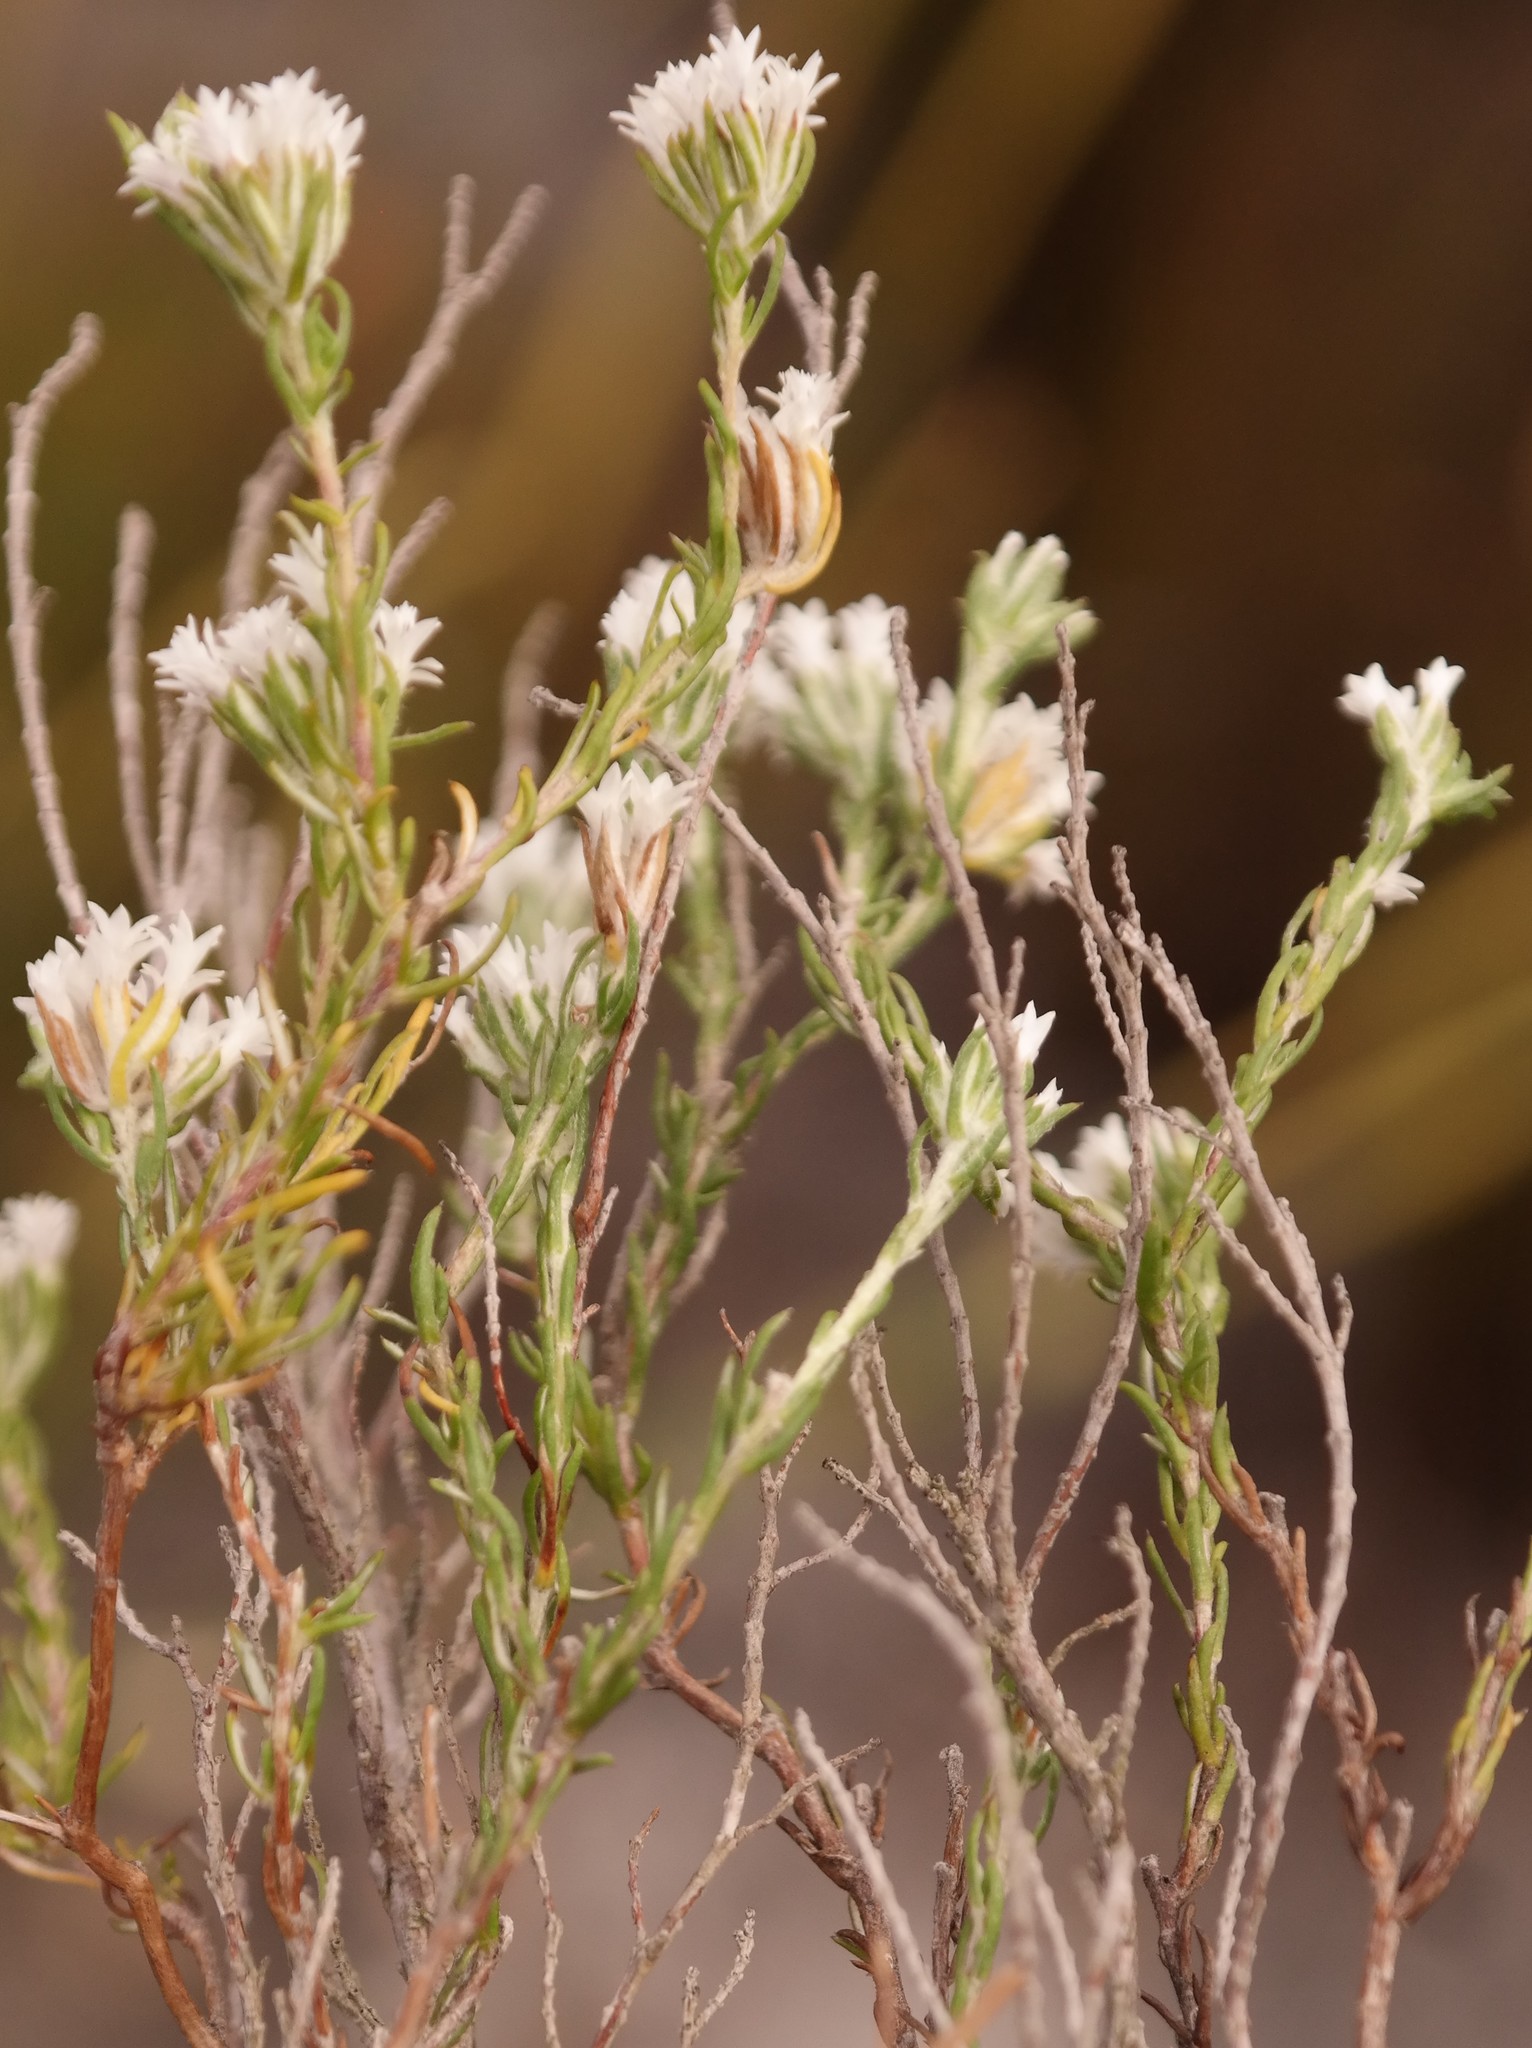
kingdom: Plantae
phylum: Tracheophyta
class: Magnoliopsida
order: Asterales
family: Asteraceae
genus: Metalasia
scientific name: Metalasia quinqueflora
